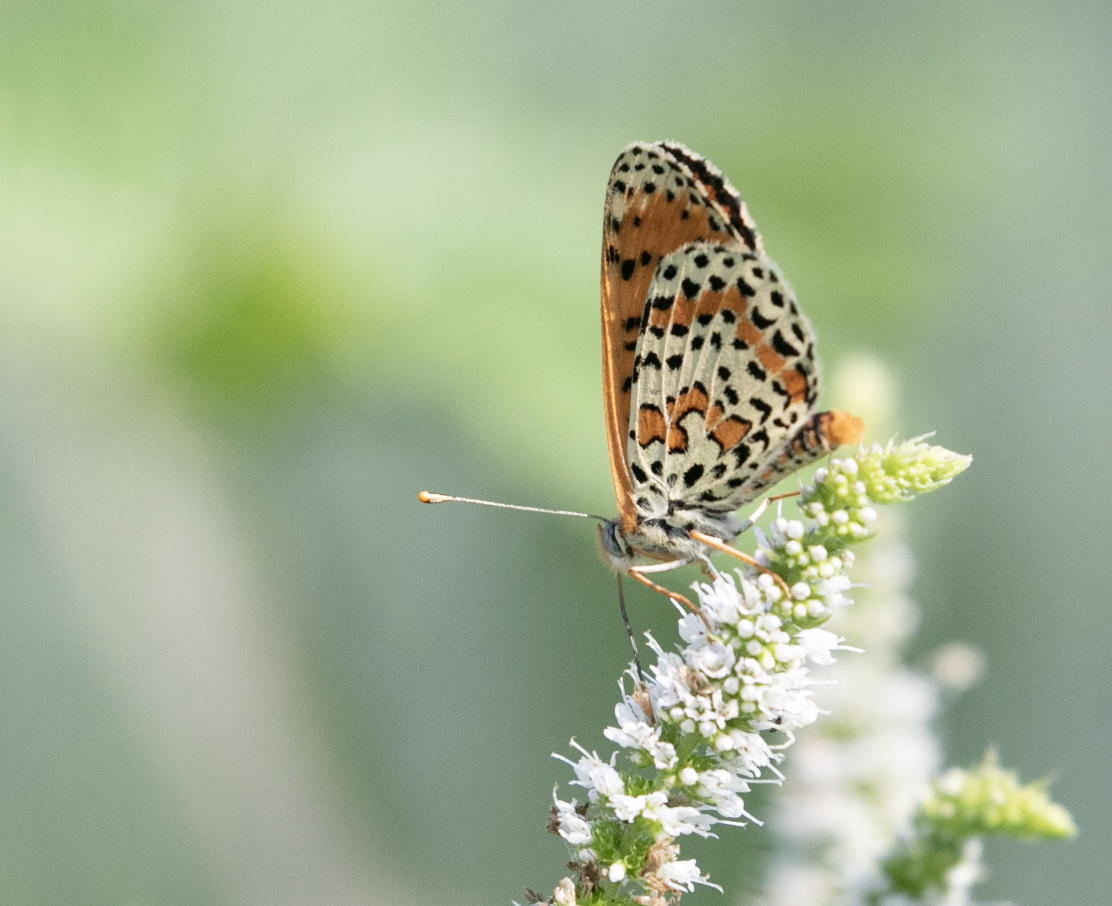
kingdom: Animalia
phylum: Arthropoda
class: Insecta
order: Lepidoptera
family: Nymphalidae
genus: Melitaea
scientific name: Melitaea didyma
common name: Spotted fritillary
